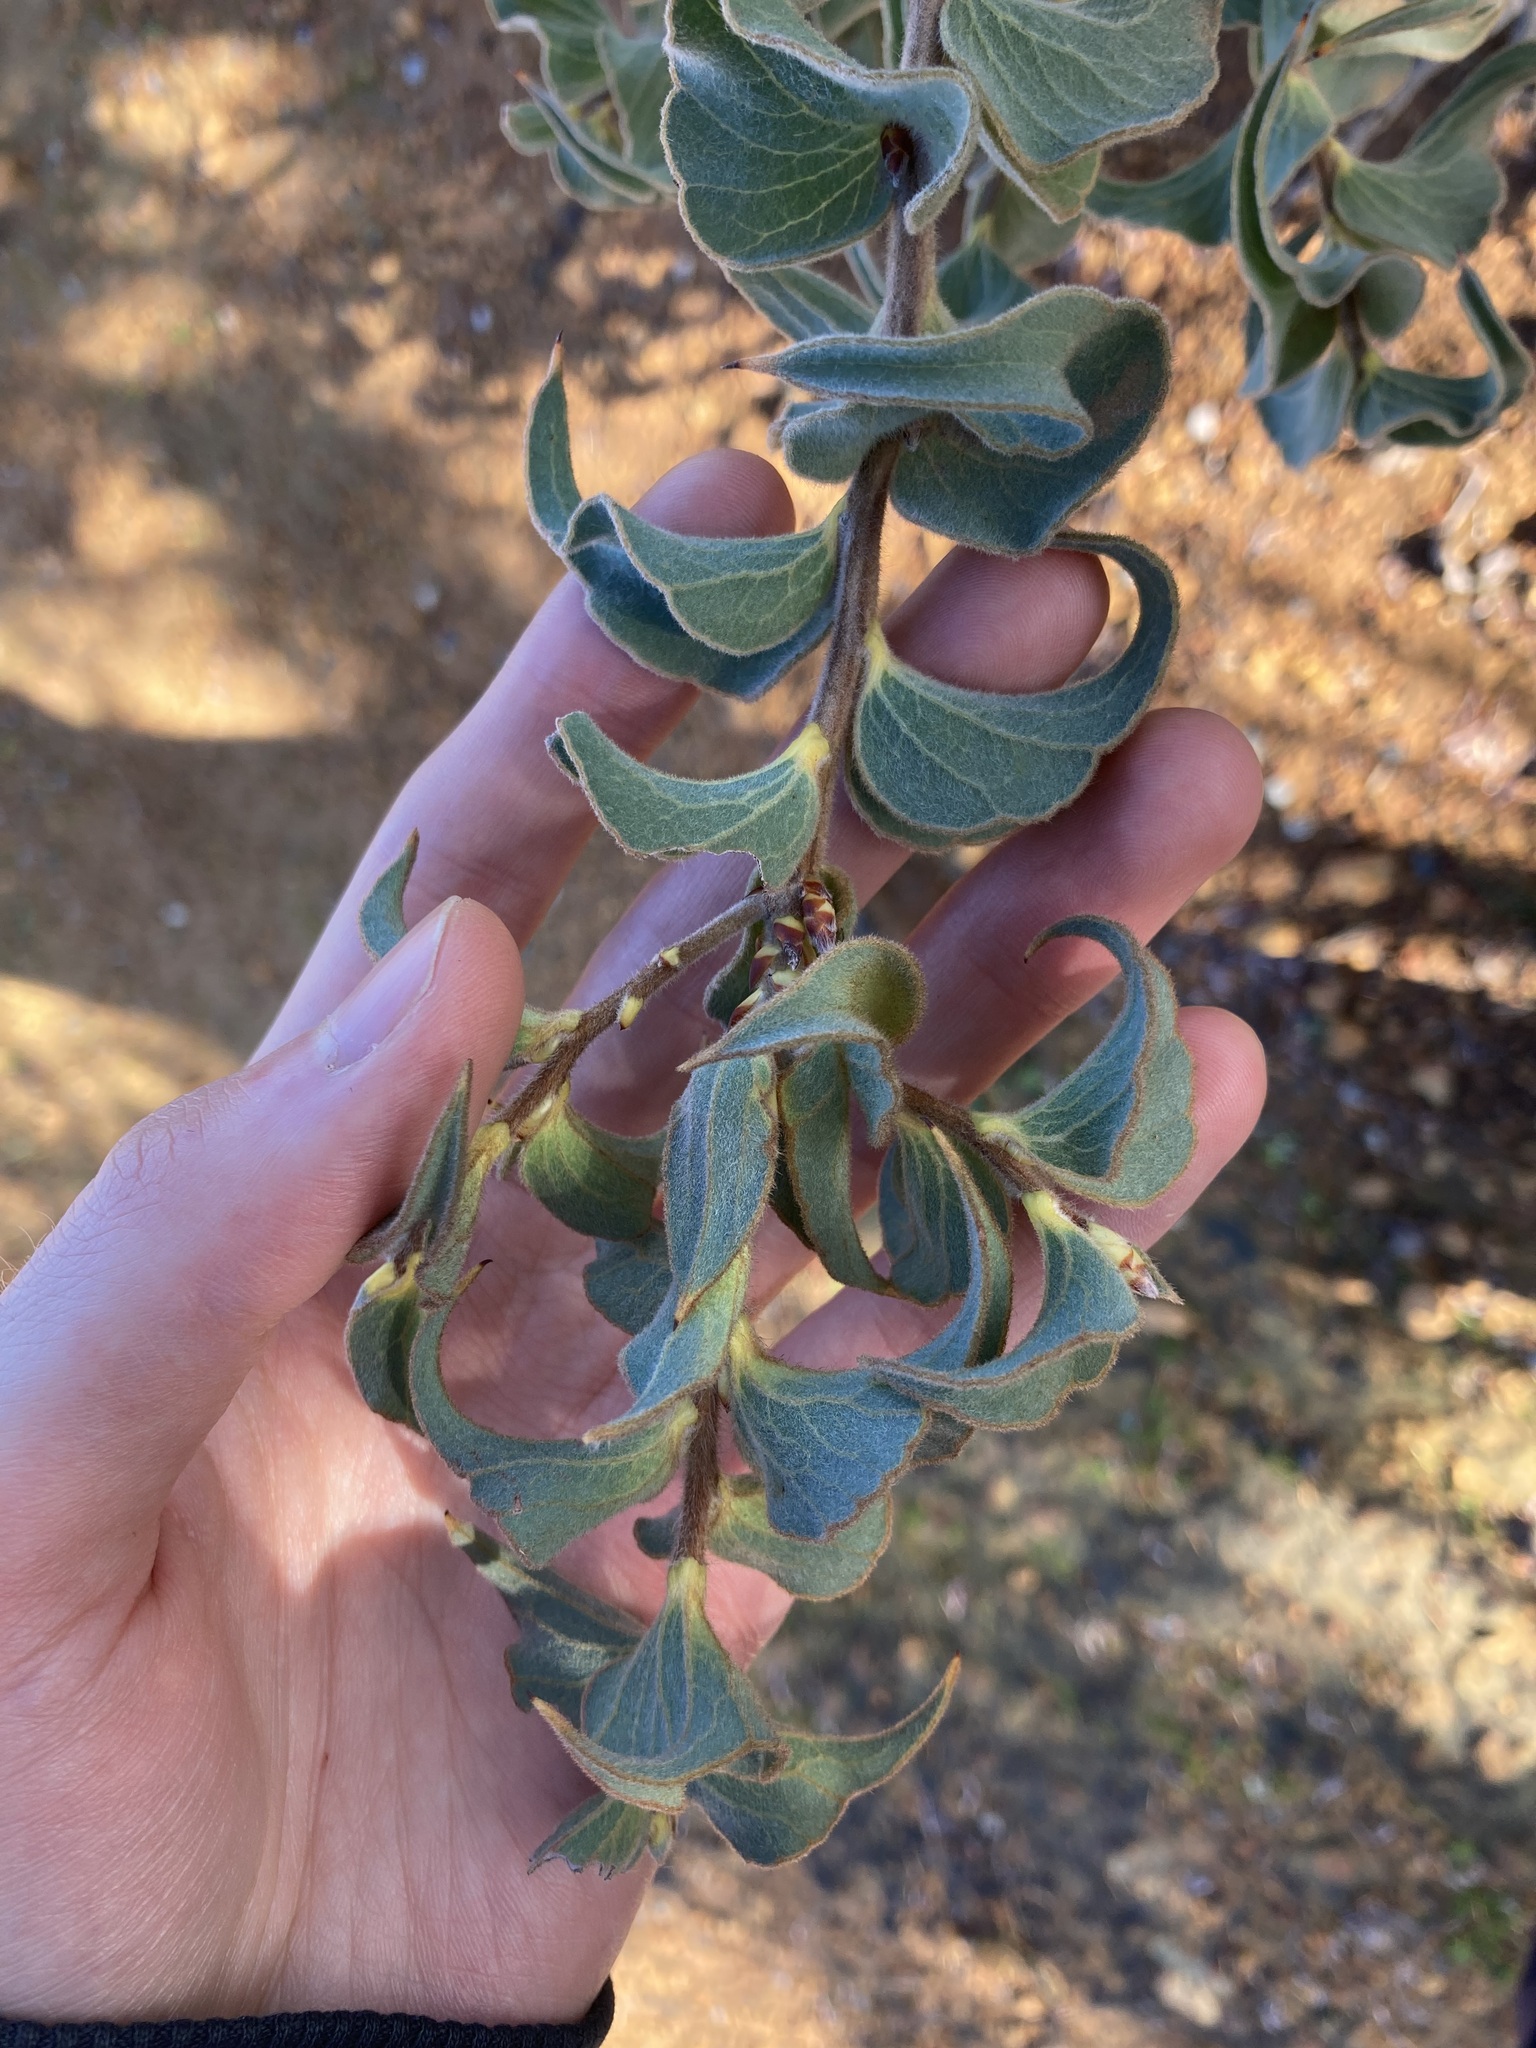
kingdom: Plantae
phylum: Tracheophyta
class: Magnoliopsida
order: Proteales
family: Proteaceae
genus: Hakea
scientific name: Hakea smilacifolia
